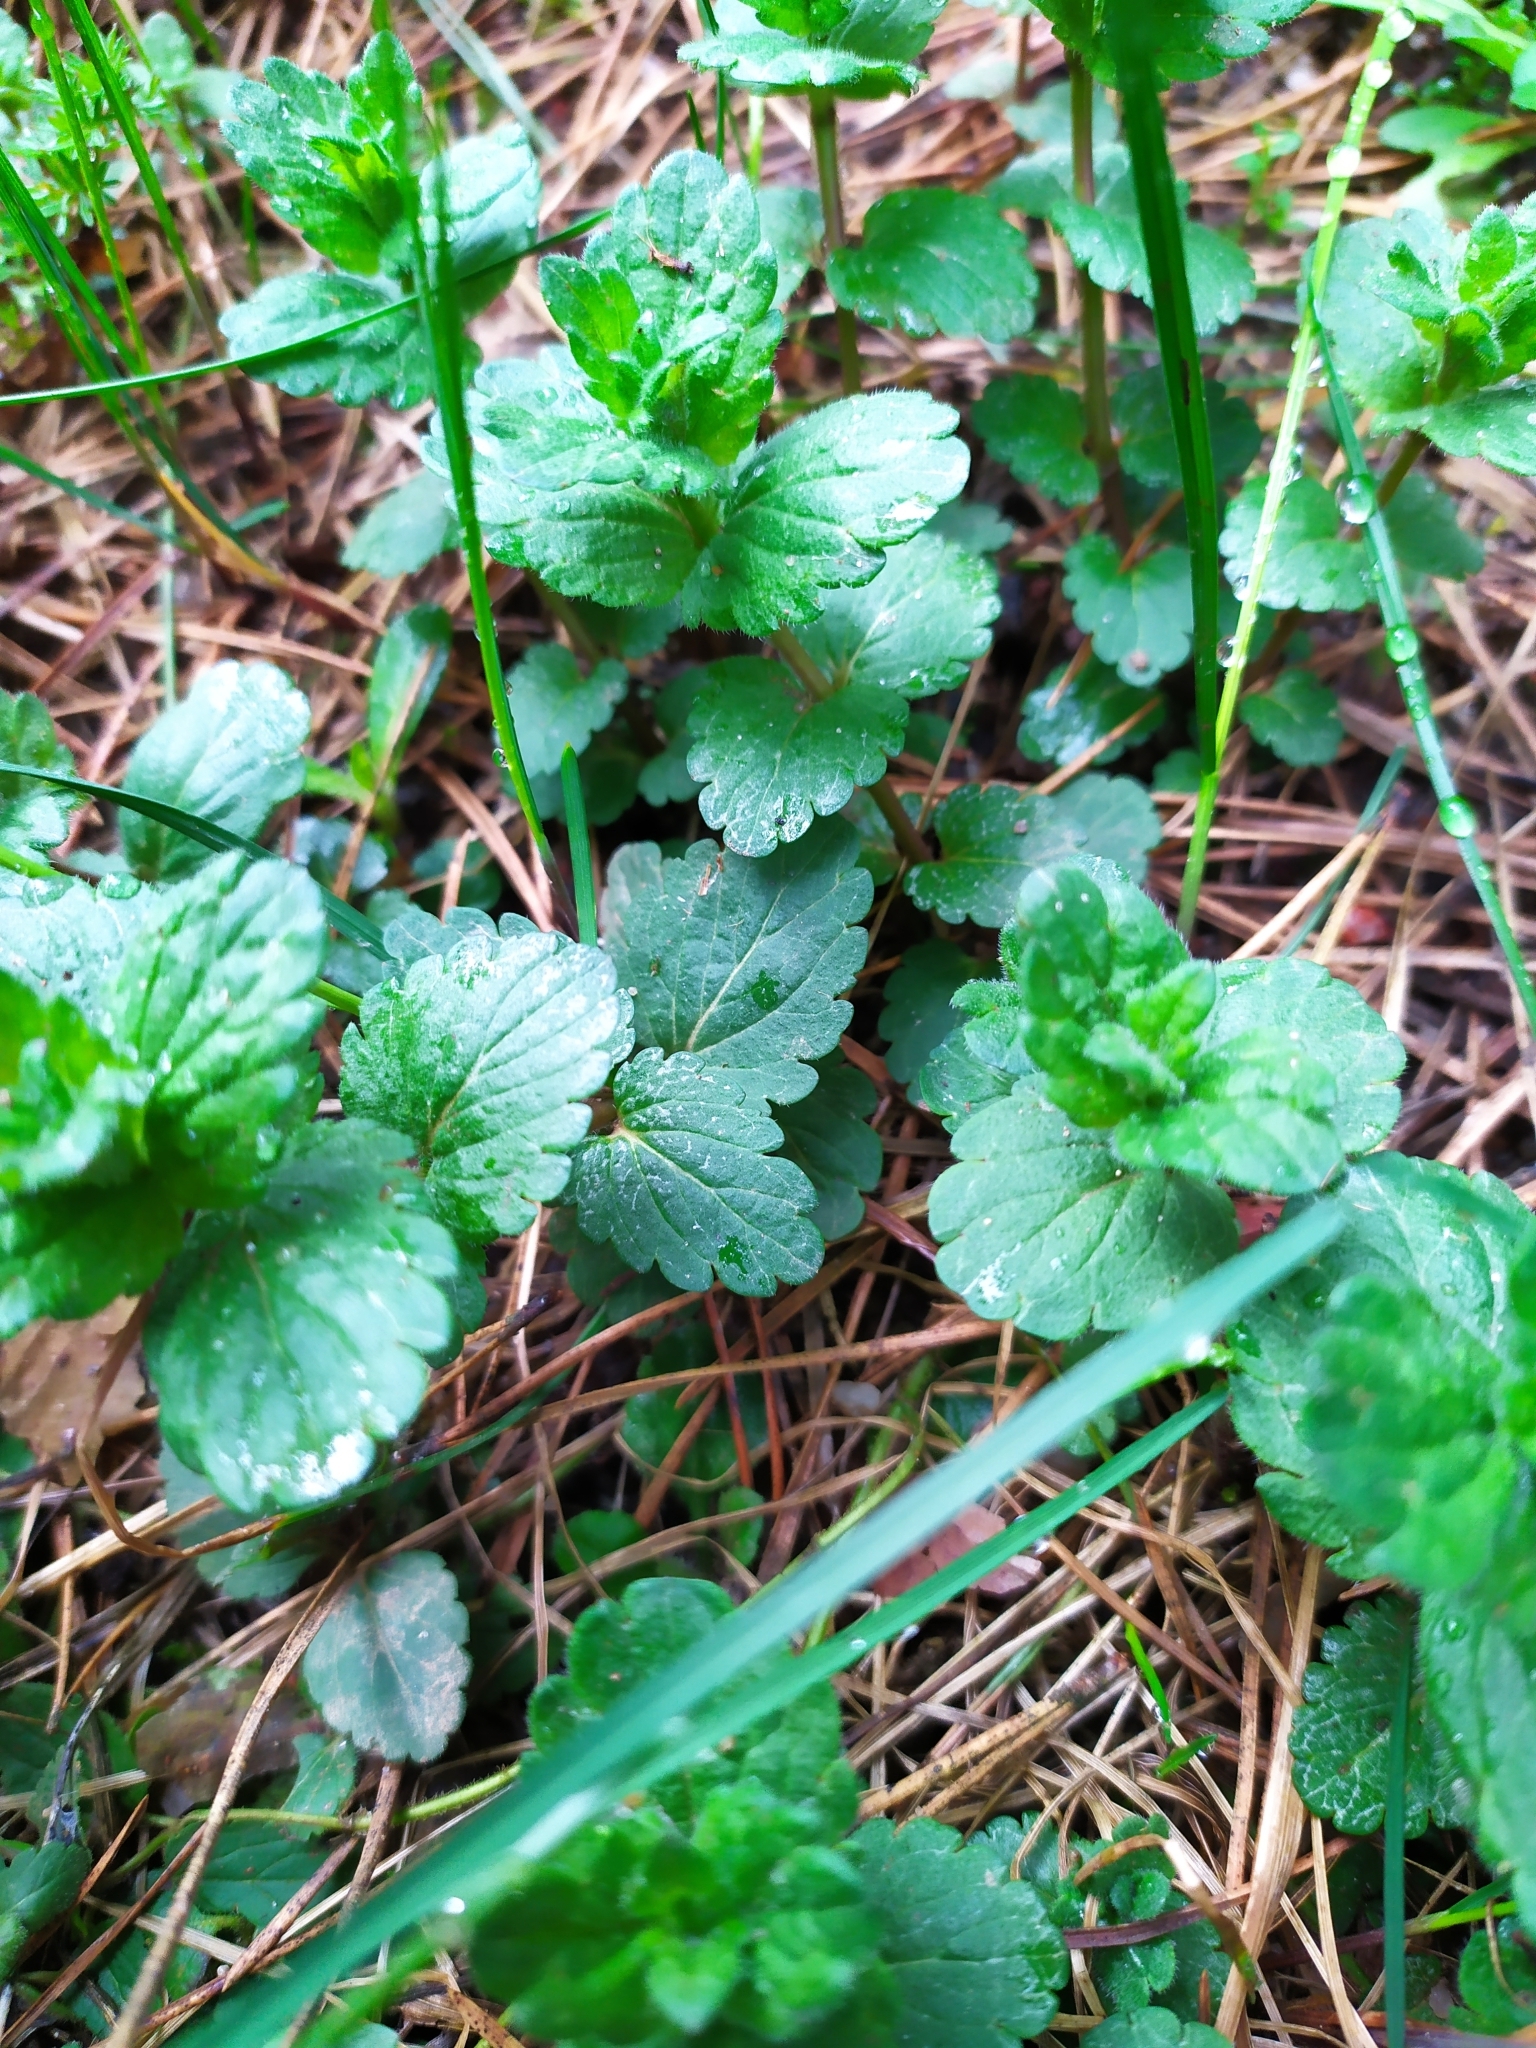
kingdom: Plantae
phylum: Tracheophyta
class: Magnoliopsida
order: Lamiales
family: Plantaginaceae
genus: Veronica
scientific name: Veronica chamaedrys
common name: Germander speedwell
